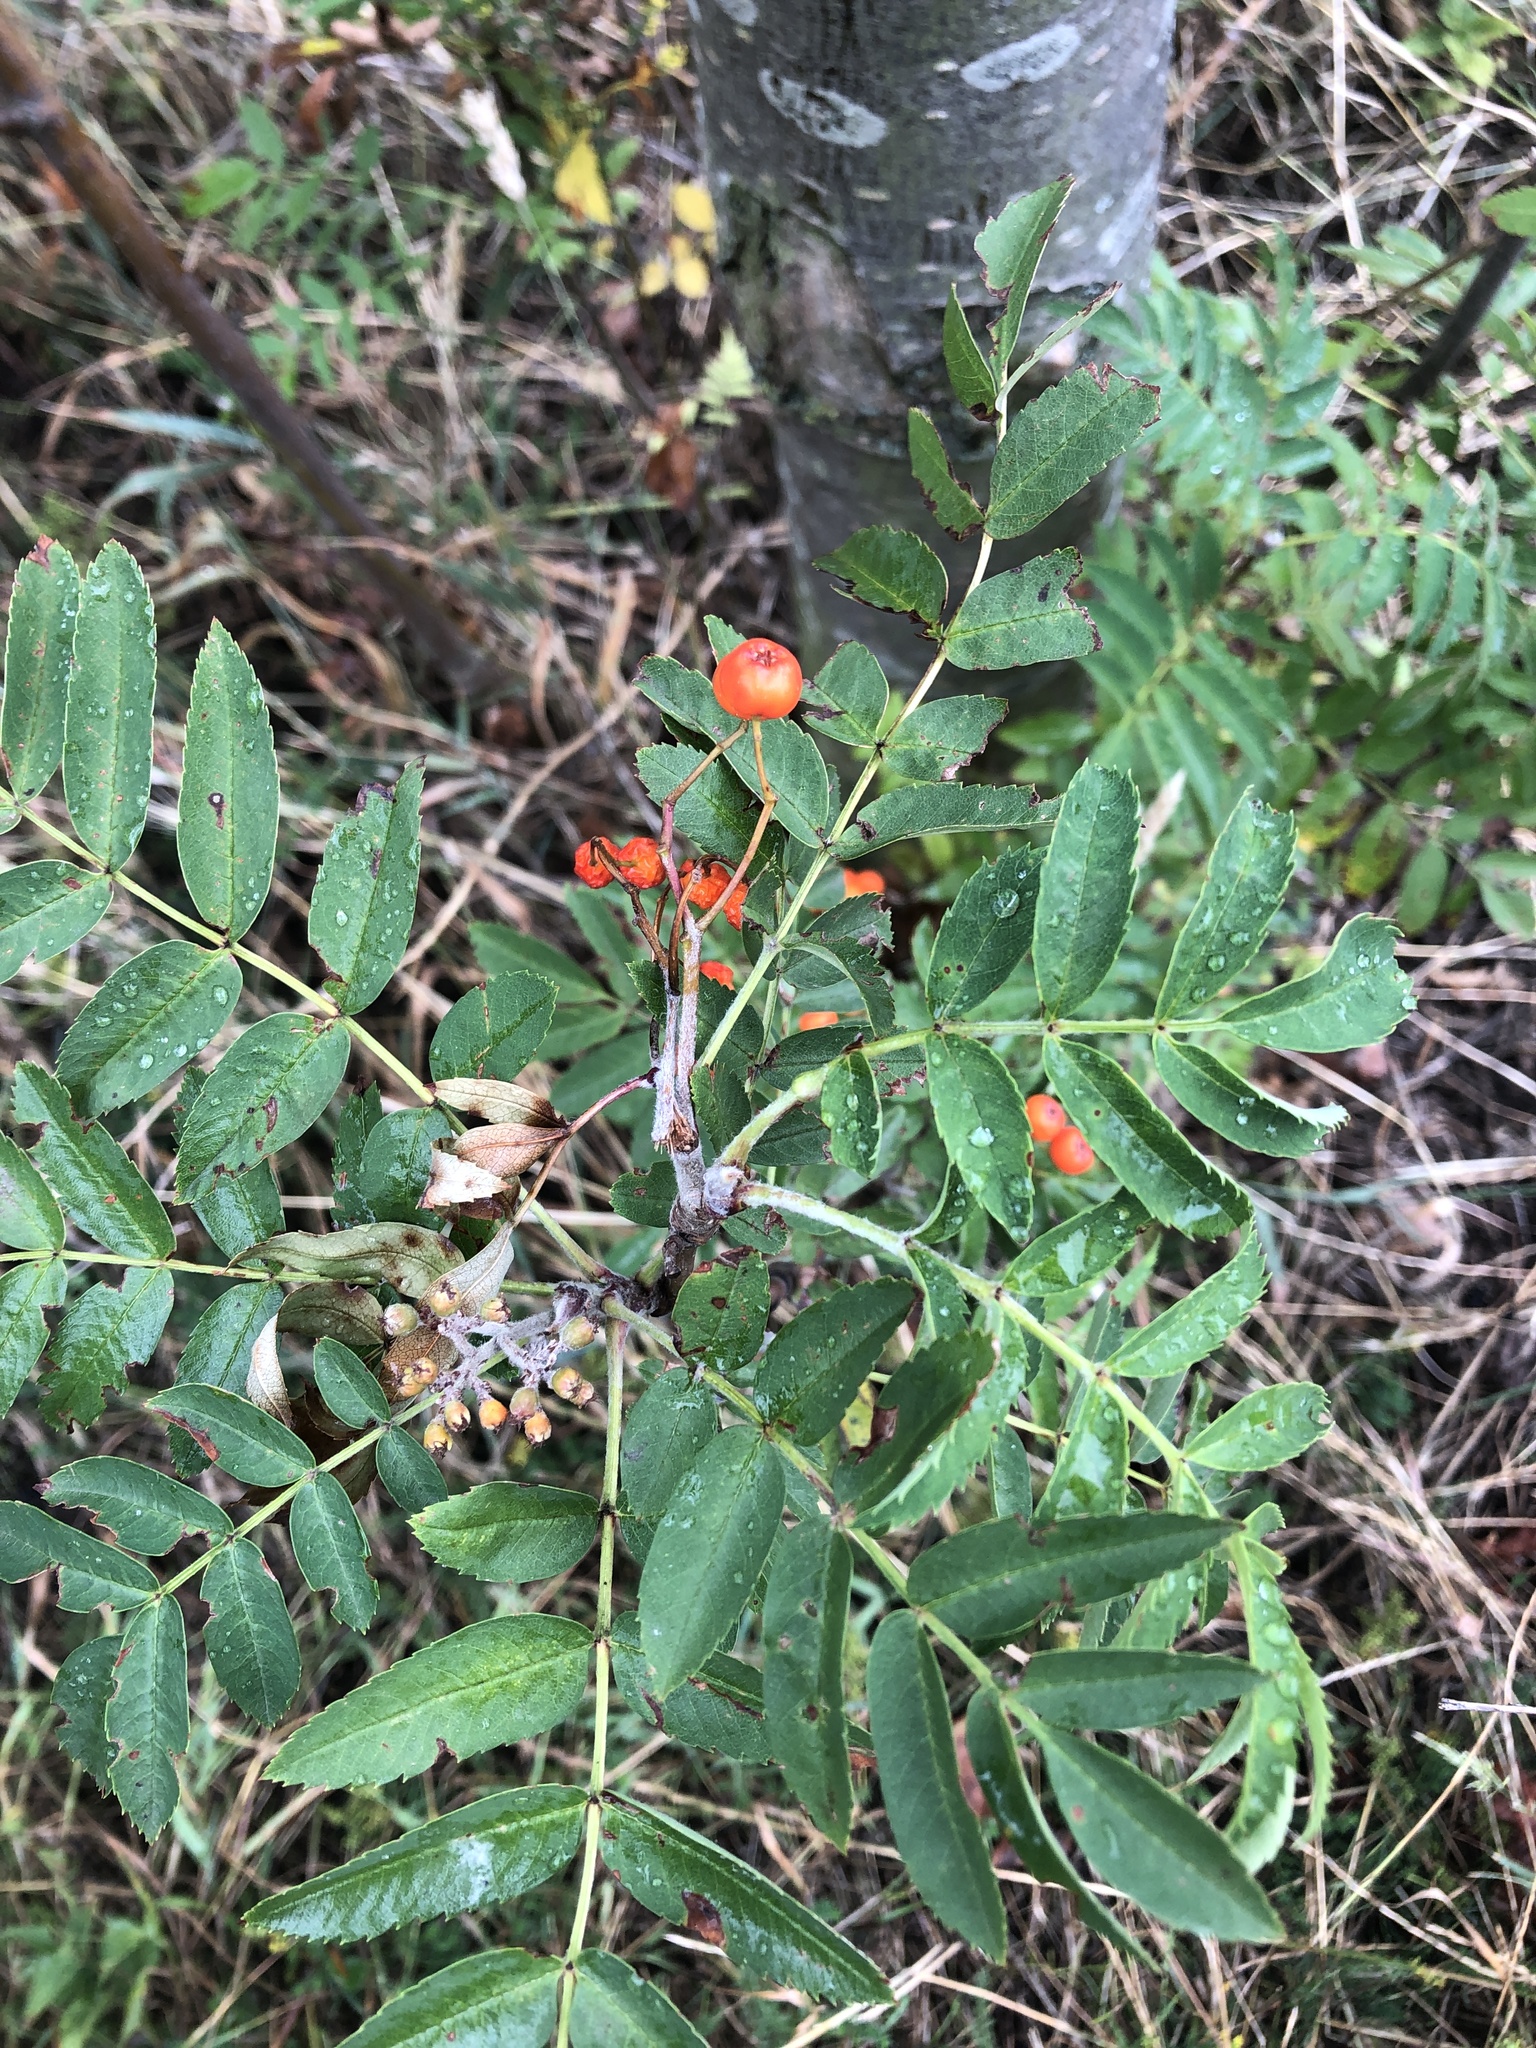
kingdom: Plantae
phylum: Tracheophyta
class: Magnoliopsida
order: Rosales
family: Rosaceae
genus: Sorbus
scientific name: Sorbus aucuparia
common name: Rowan
